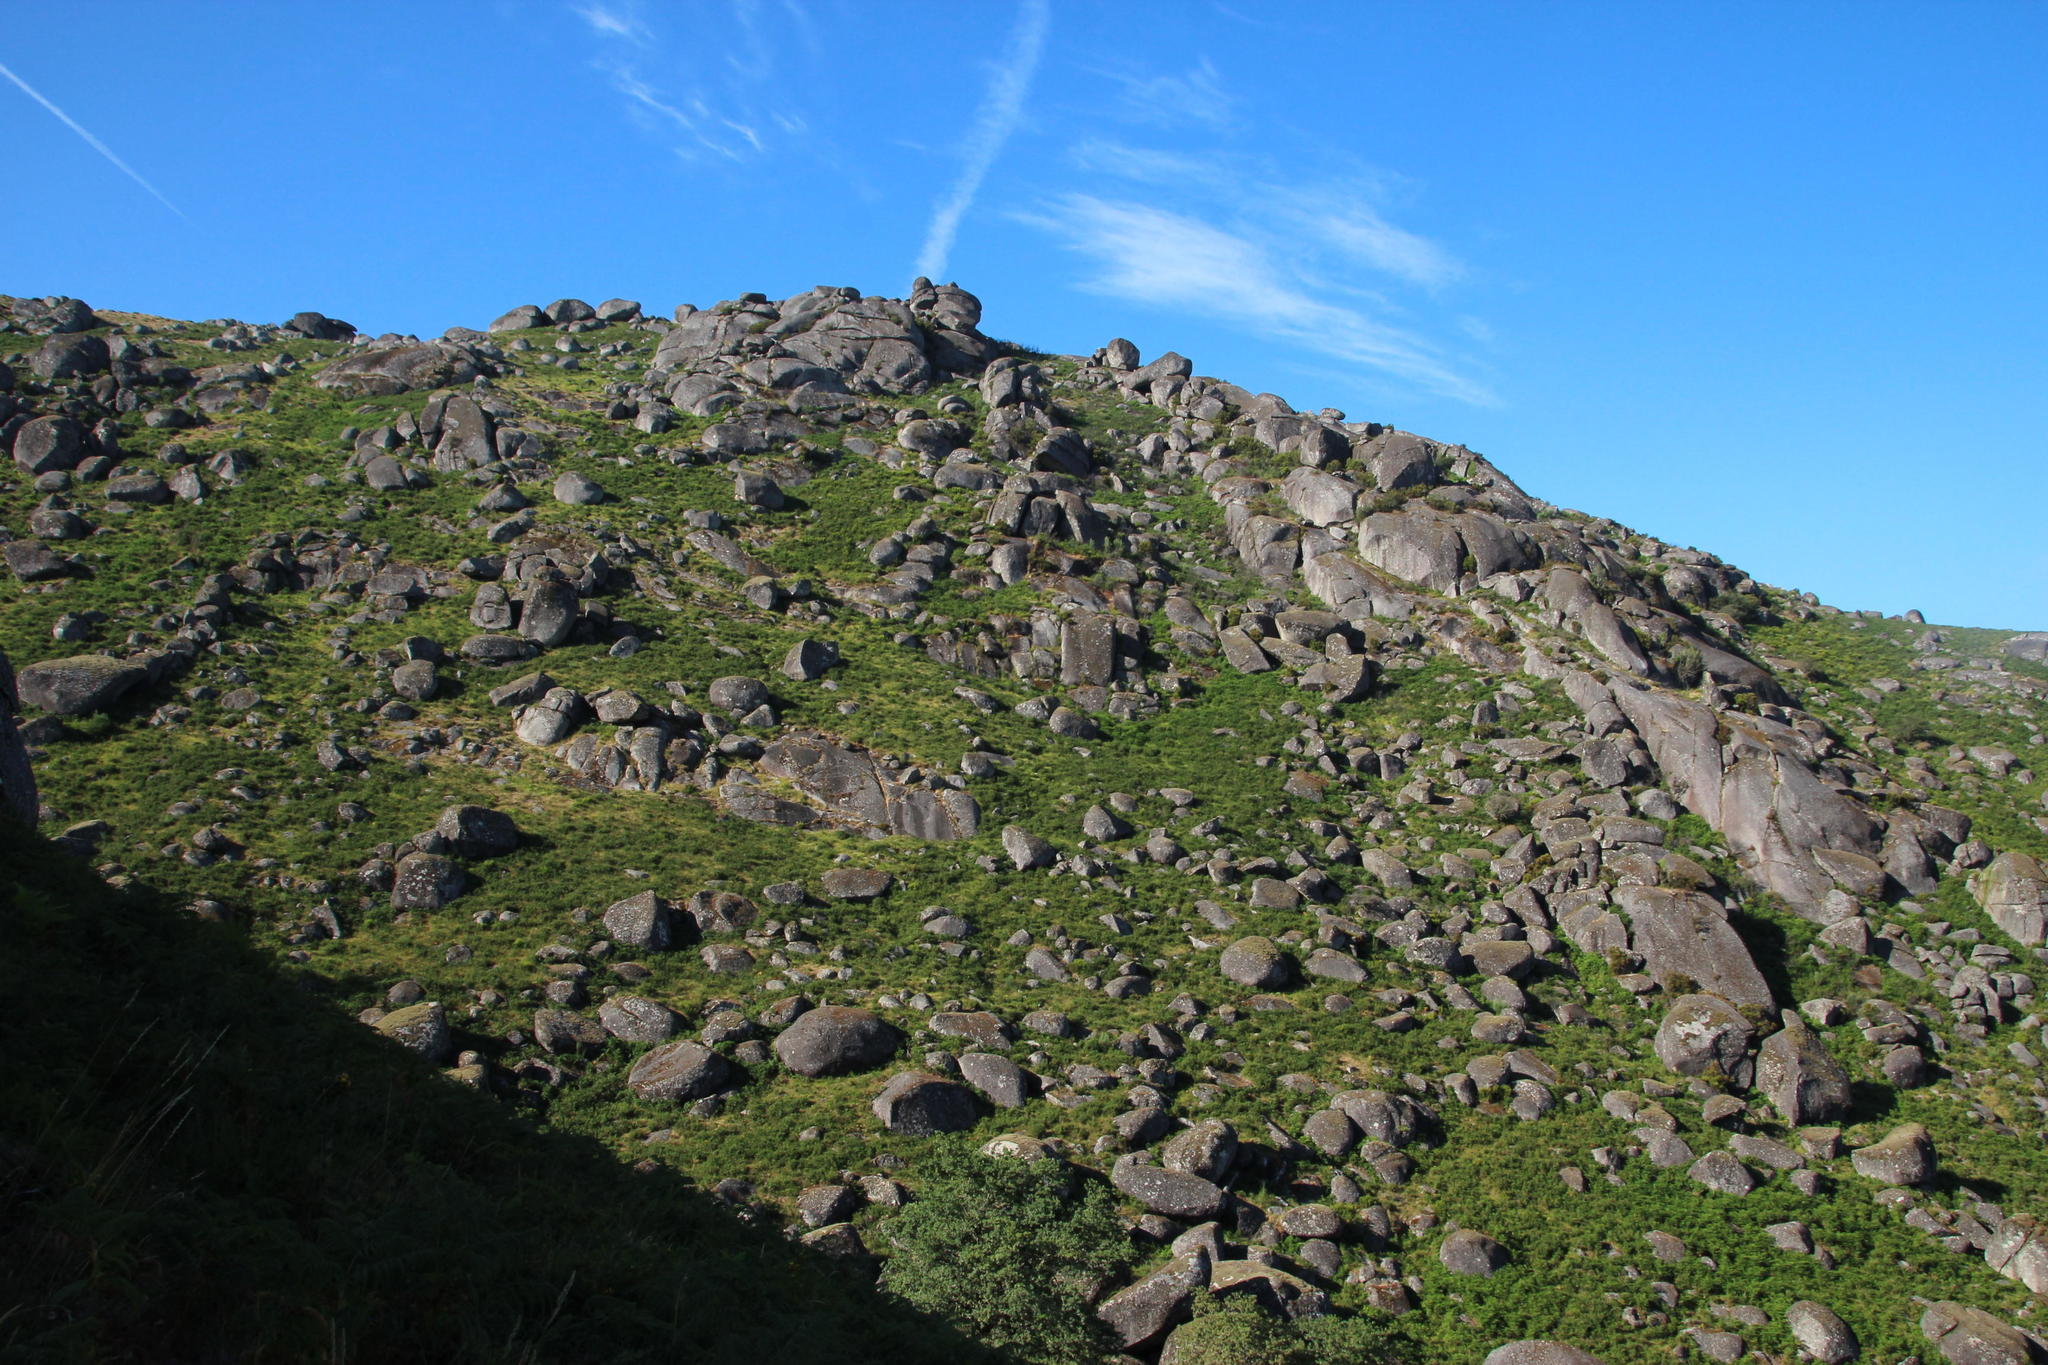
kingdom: Plantae
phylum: Tracheophyta
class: Polypodiopsida
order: Polypodiales
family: Dennstaedtiaceae
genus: Pteridium
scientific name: Pteridium aquilinum
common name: Bracken
